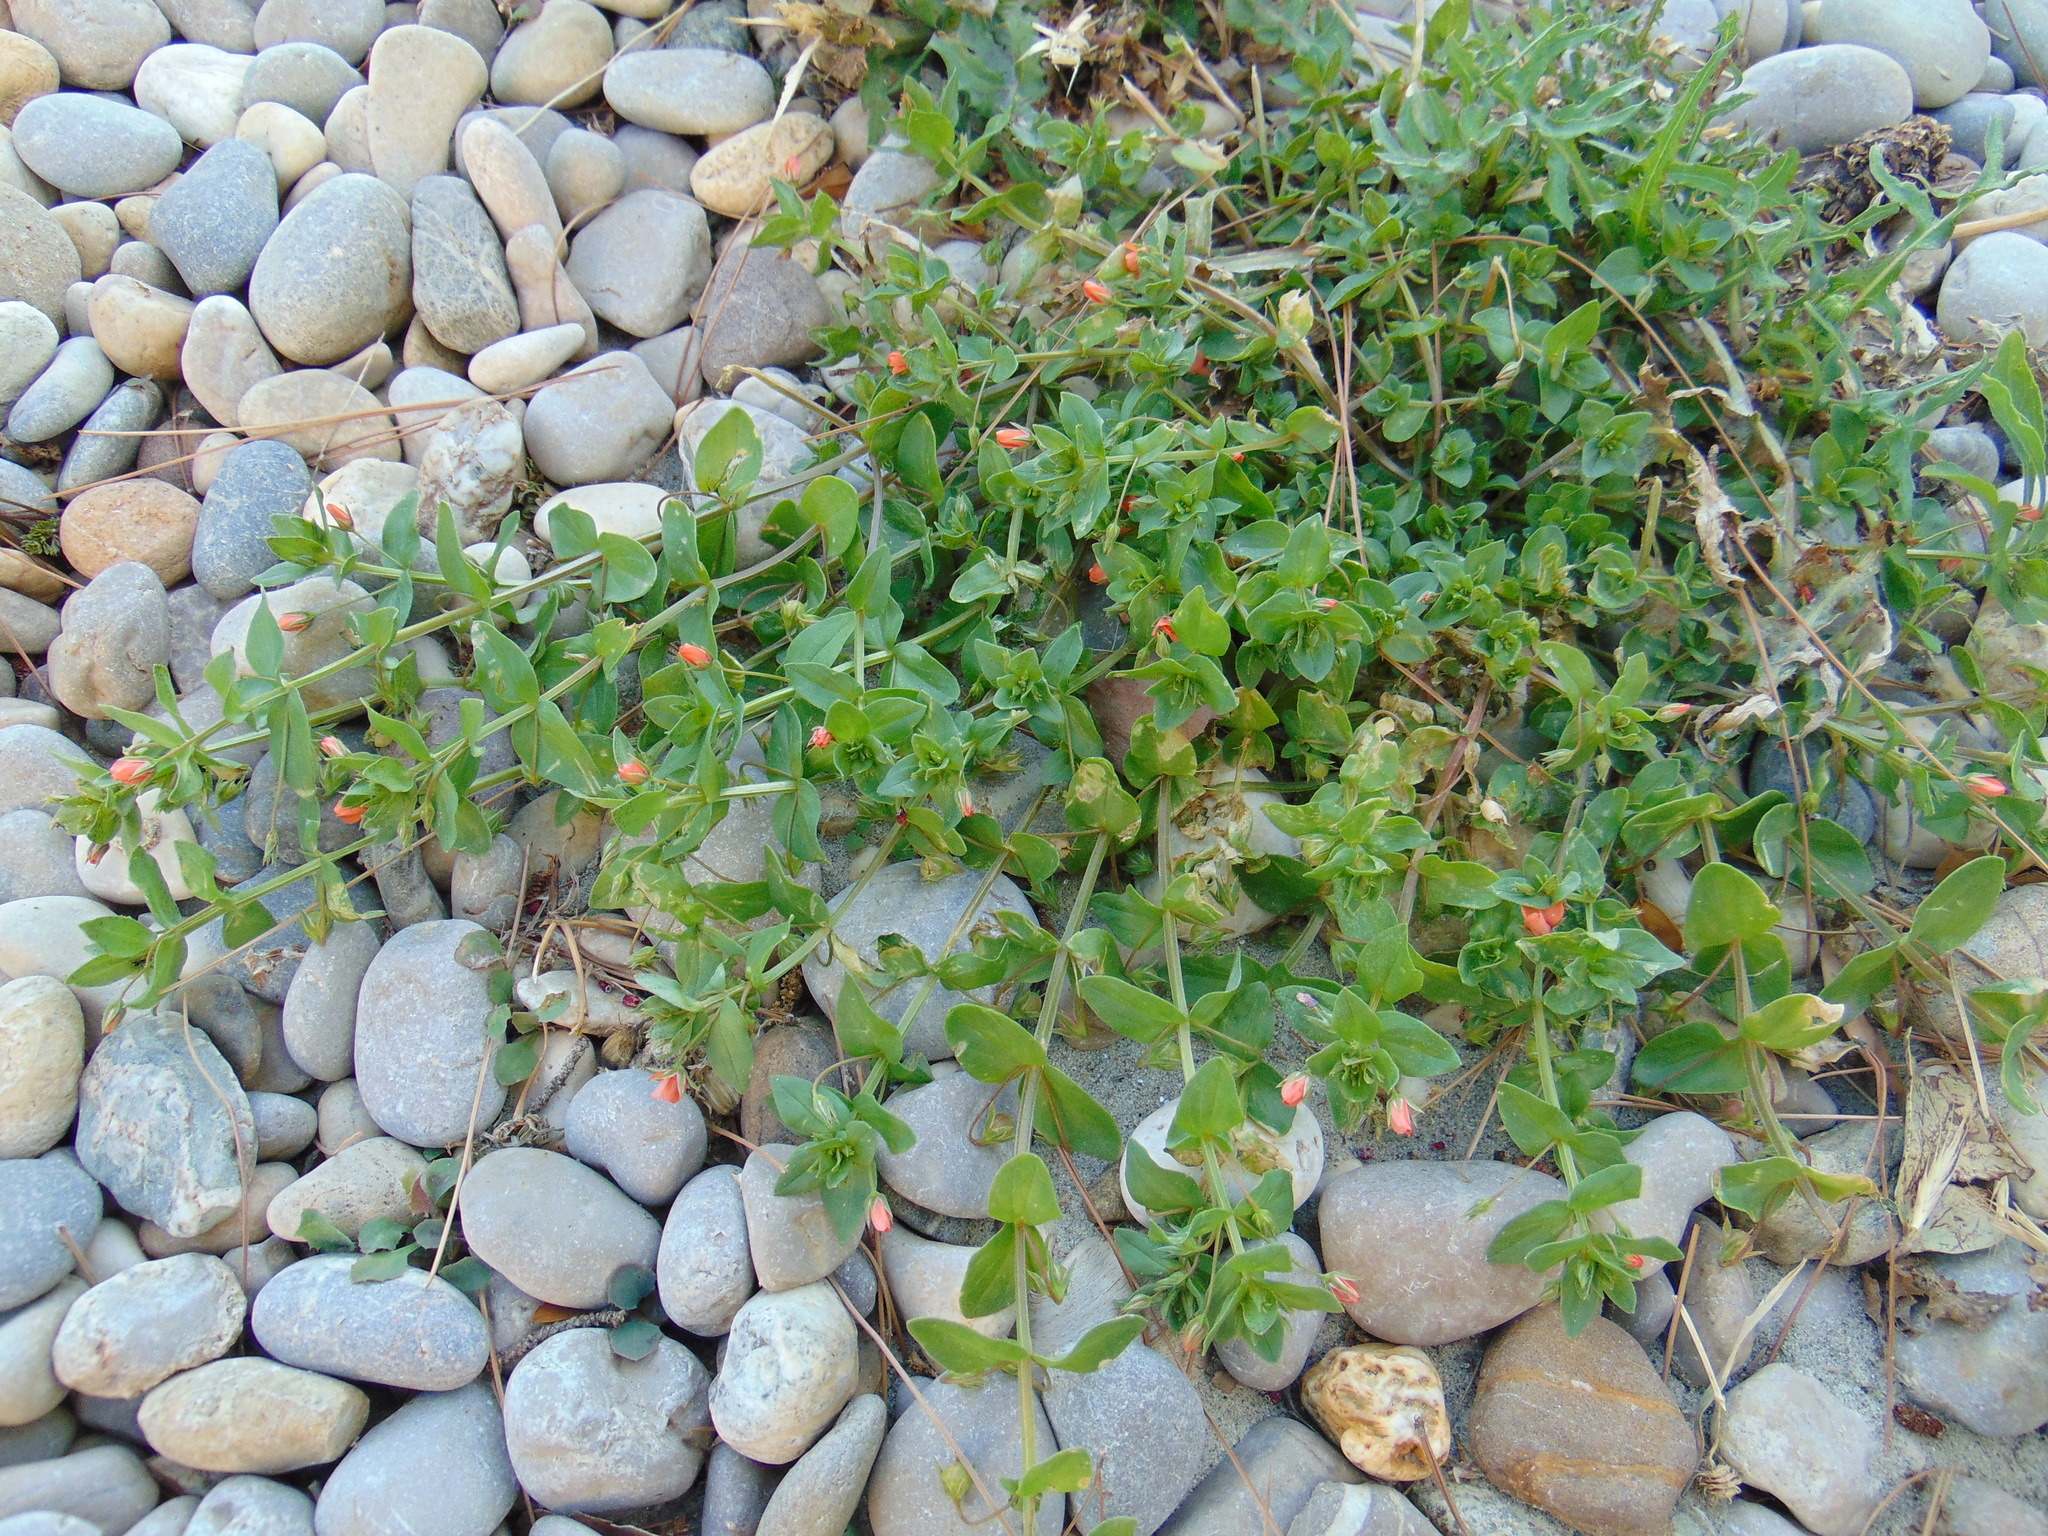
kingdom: Plantae
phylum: Tracheophyta
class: Magnoliopsida
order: Ericales
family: Primulaceae
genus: Lysimachia
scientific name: Lysimachia arvensis
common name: Scarlet pimpernel
